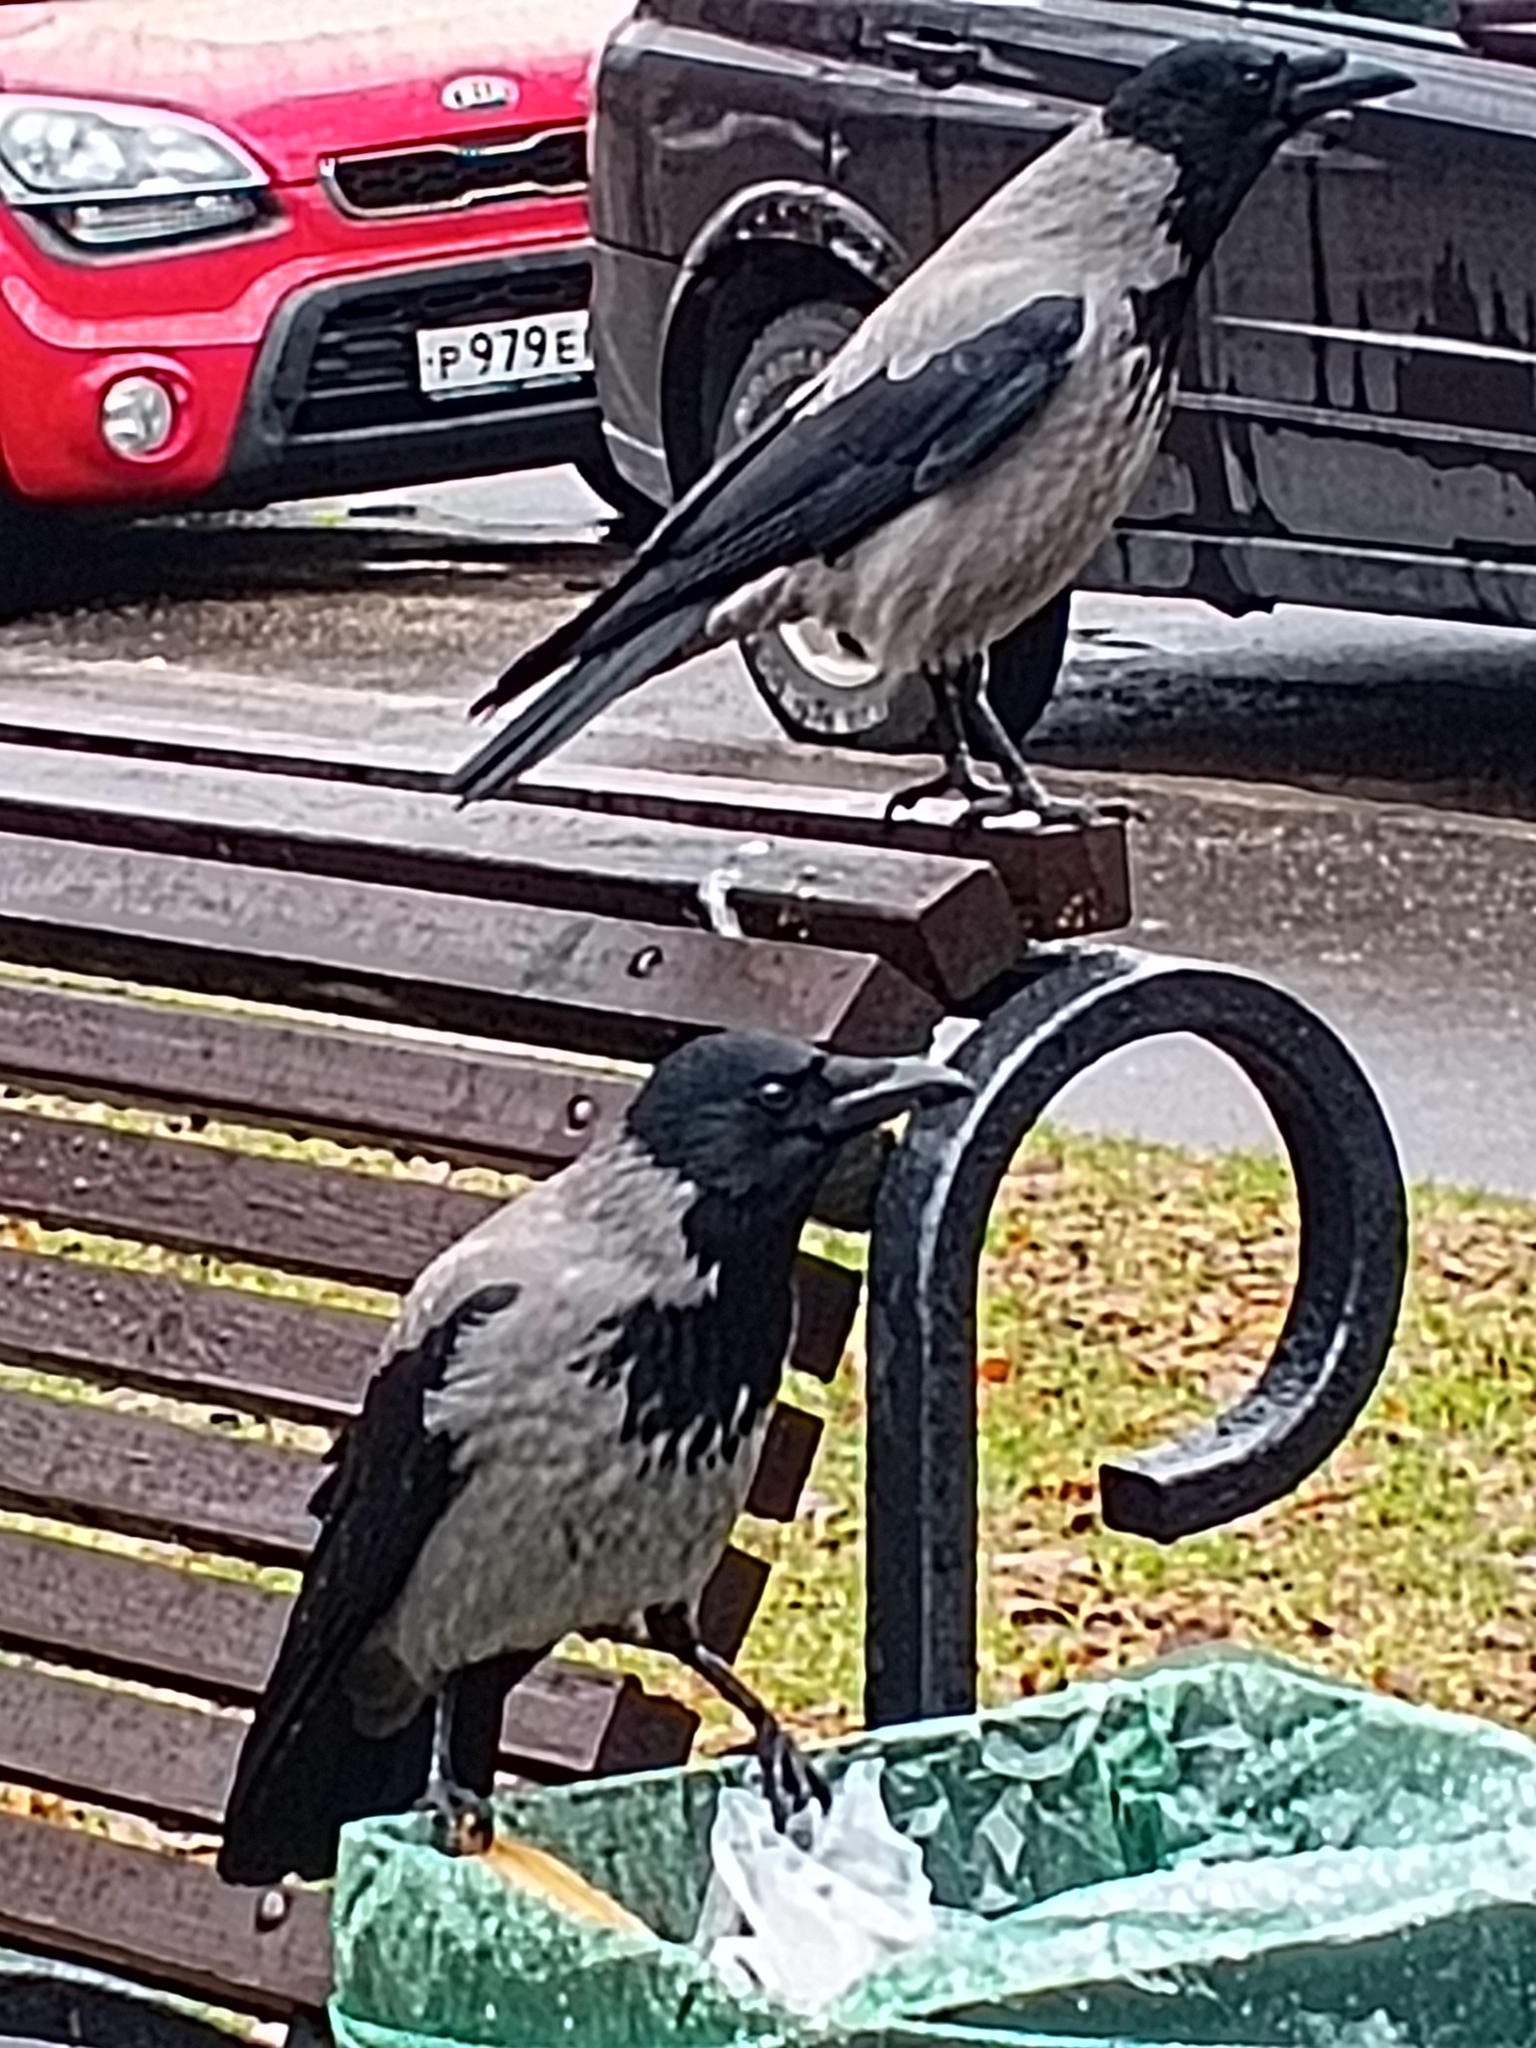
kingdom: Animalia
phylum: Chordata
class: Aves
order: Passeriformes
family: Corvidae
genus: Corvus
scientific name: Corvus cornix
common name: Hooded crow
